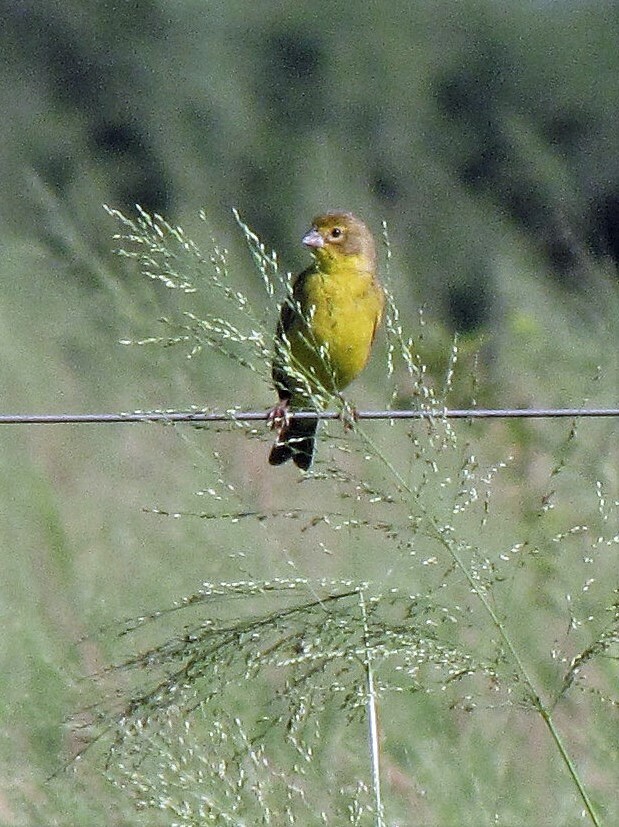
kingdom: Animalia
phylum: Chordata
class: Aves
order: Passeriformes
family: Thraupidae
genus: Sicalis
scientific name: Sicalis luteola
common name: Grassland yellow-finch
